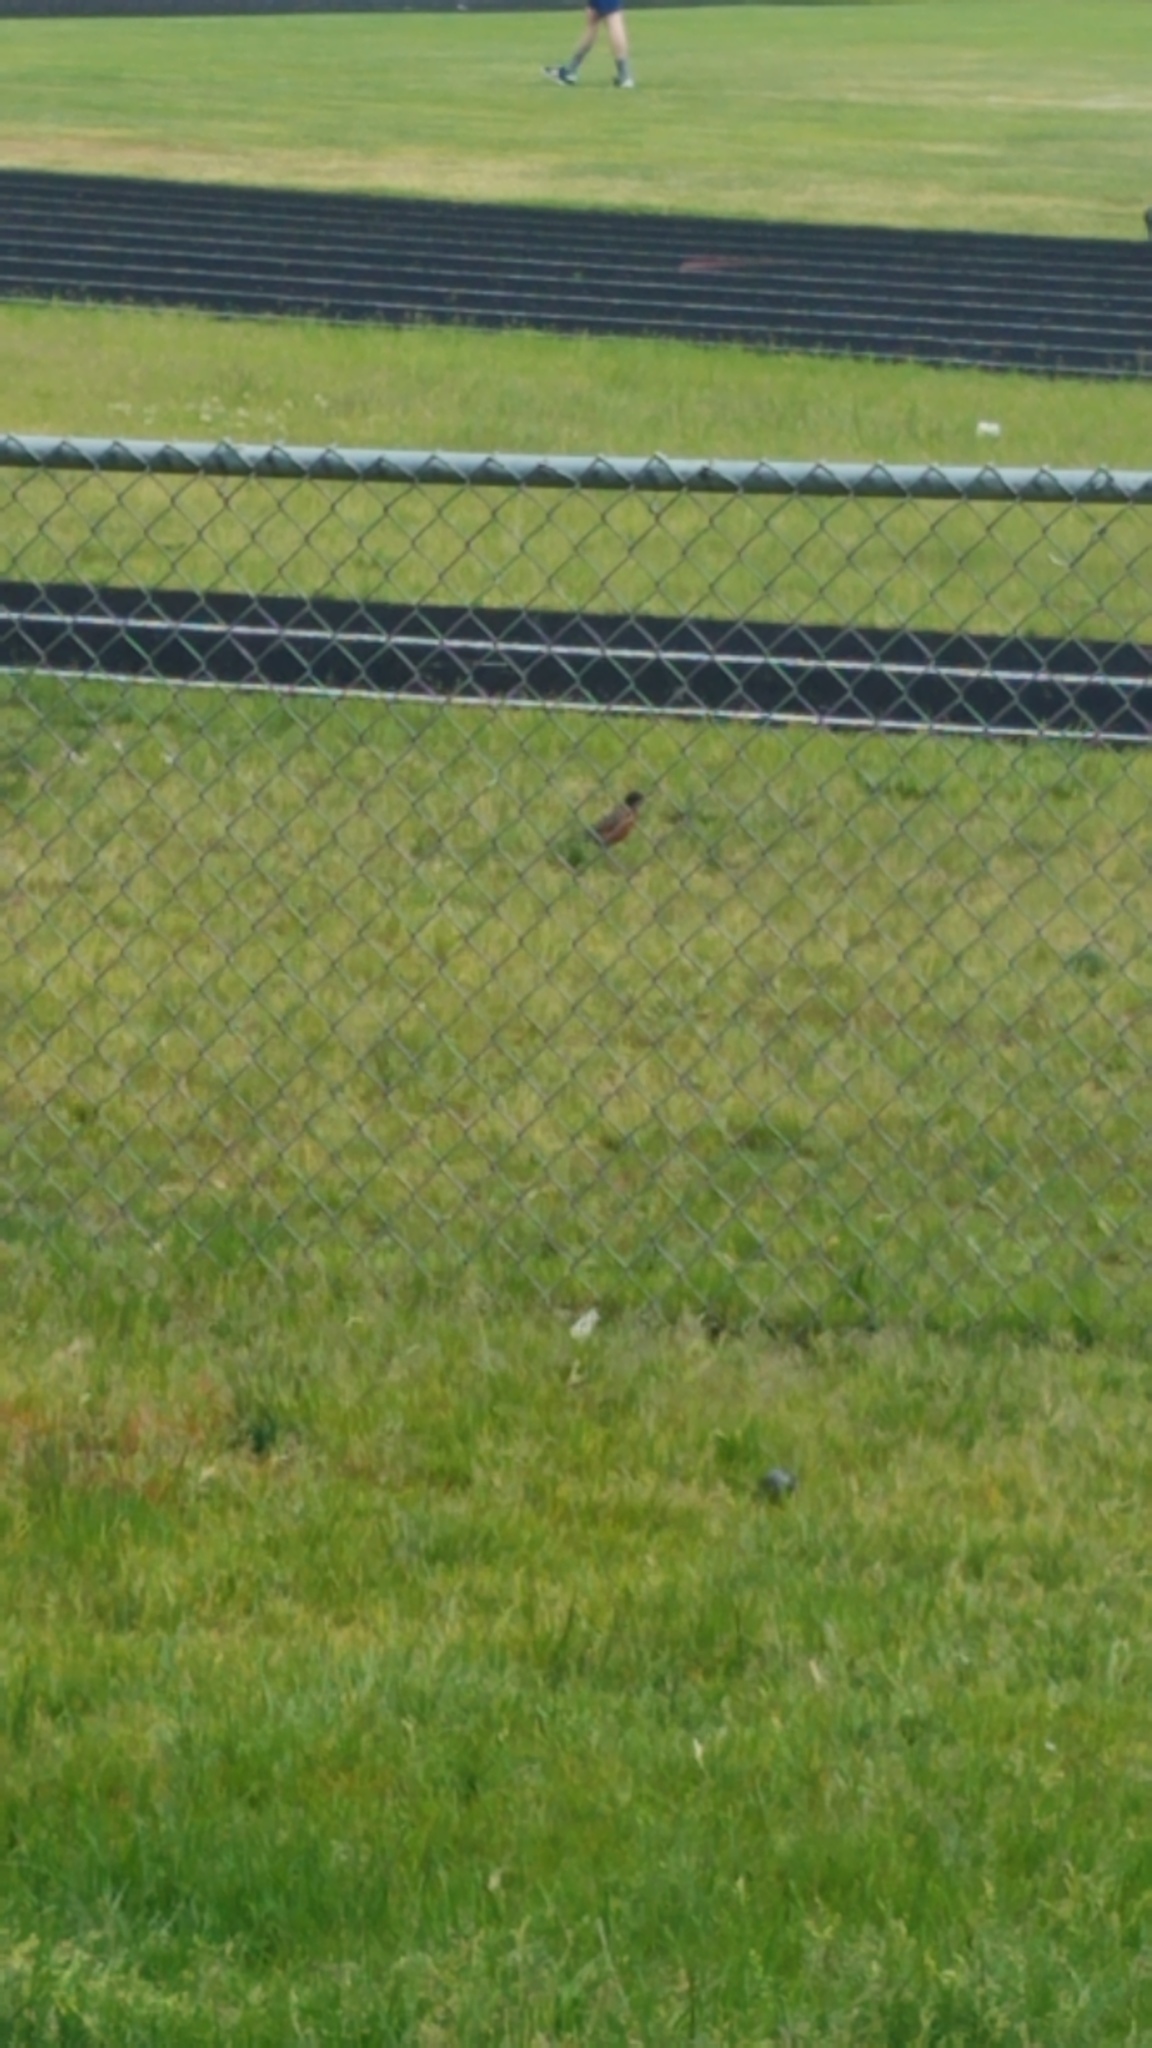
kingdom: Animalia
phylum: Chordata
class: Aves
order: Passeriformes
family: Turdidae
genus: Turdus
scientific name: Turdus migratorius
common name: American robin
